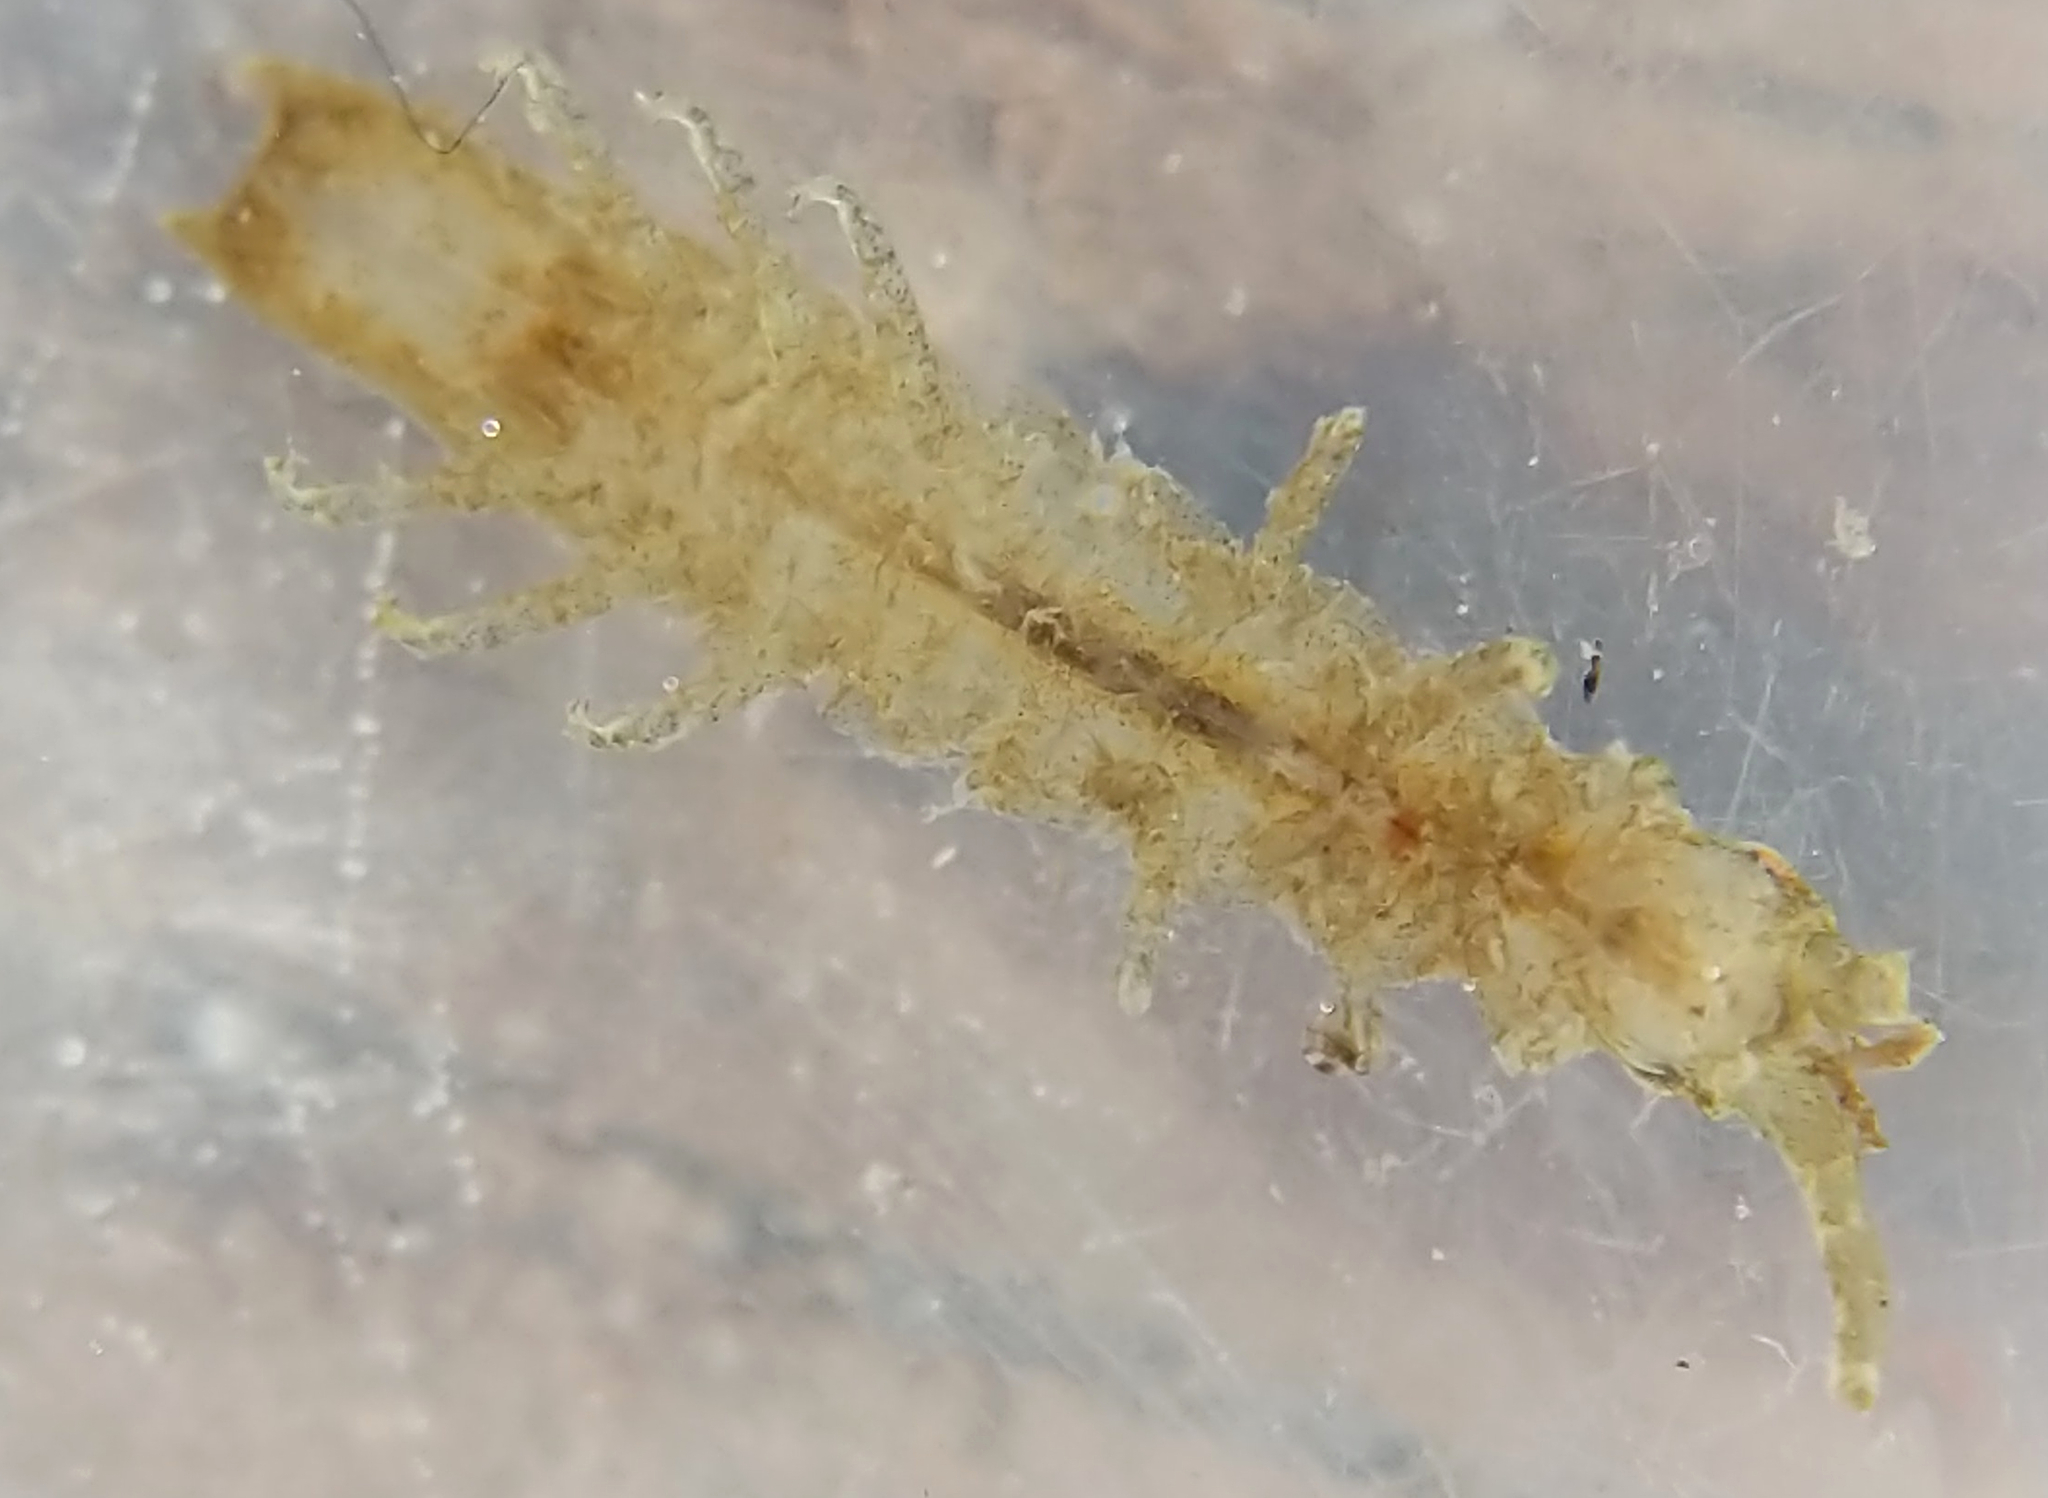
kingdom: Animalia
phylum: Arthropoda
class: Malacostraca
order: Isopoda
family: Idoteidae
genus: Pentidotea
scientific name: Pentidotea resecata
